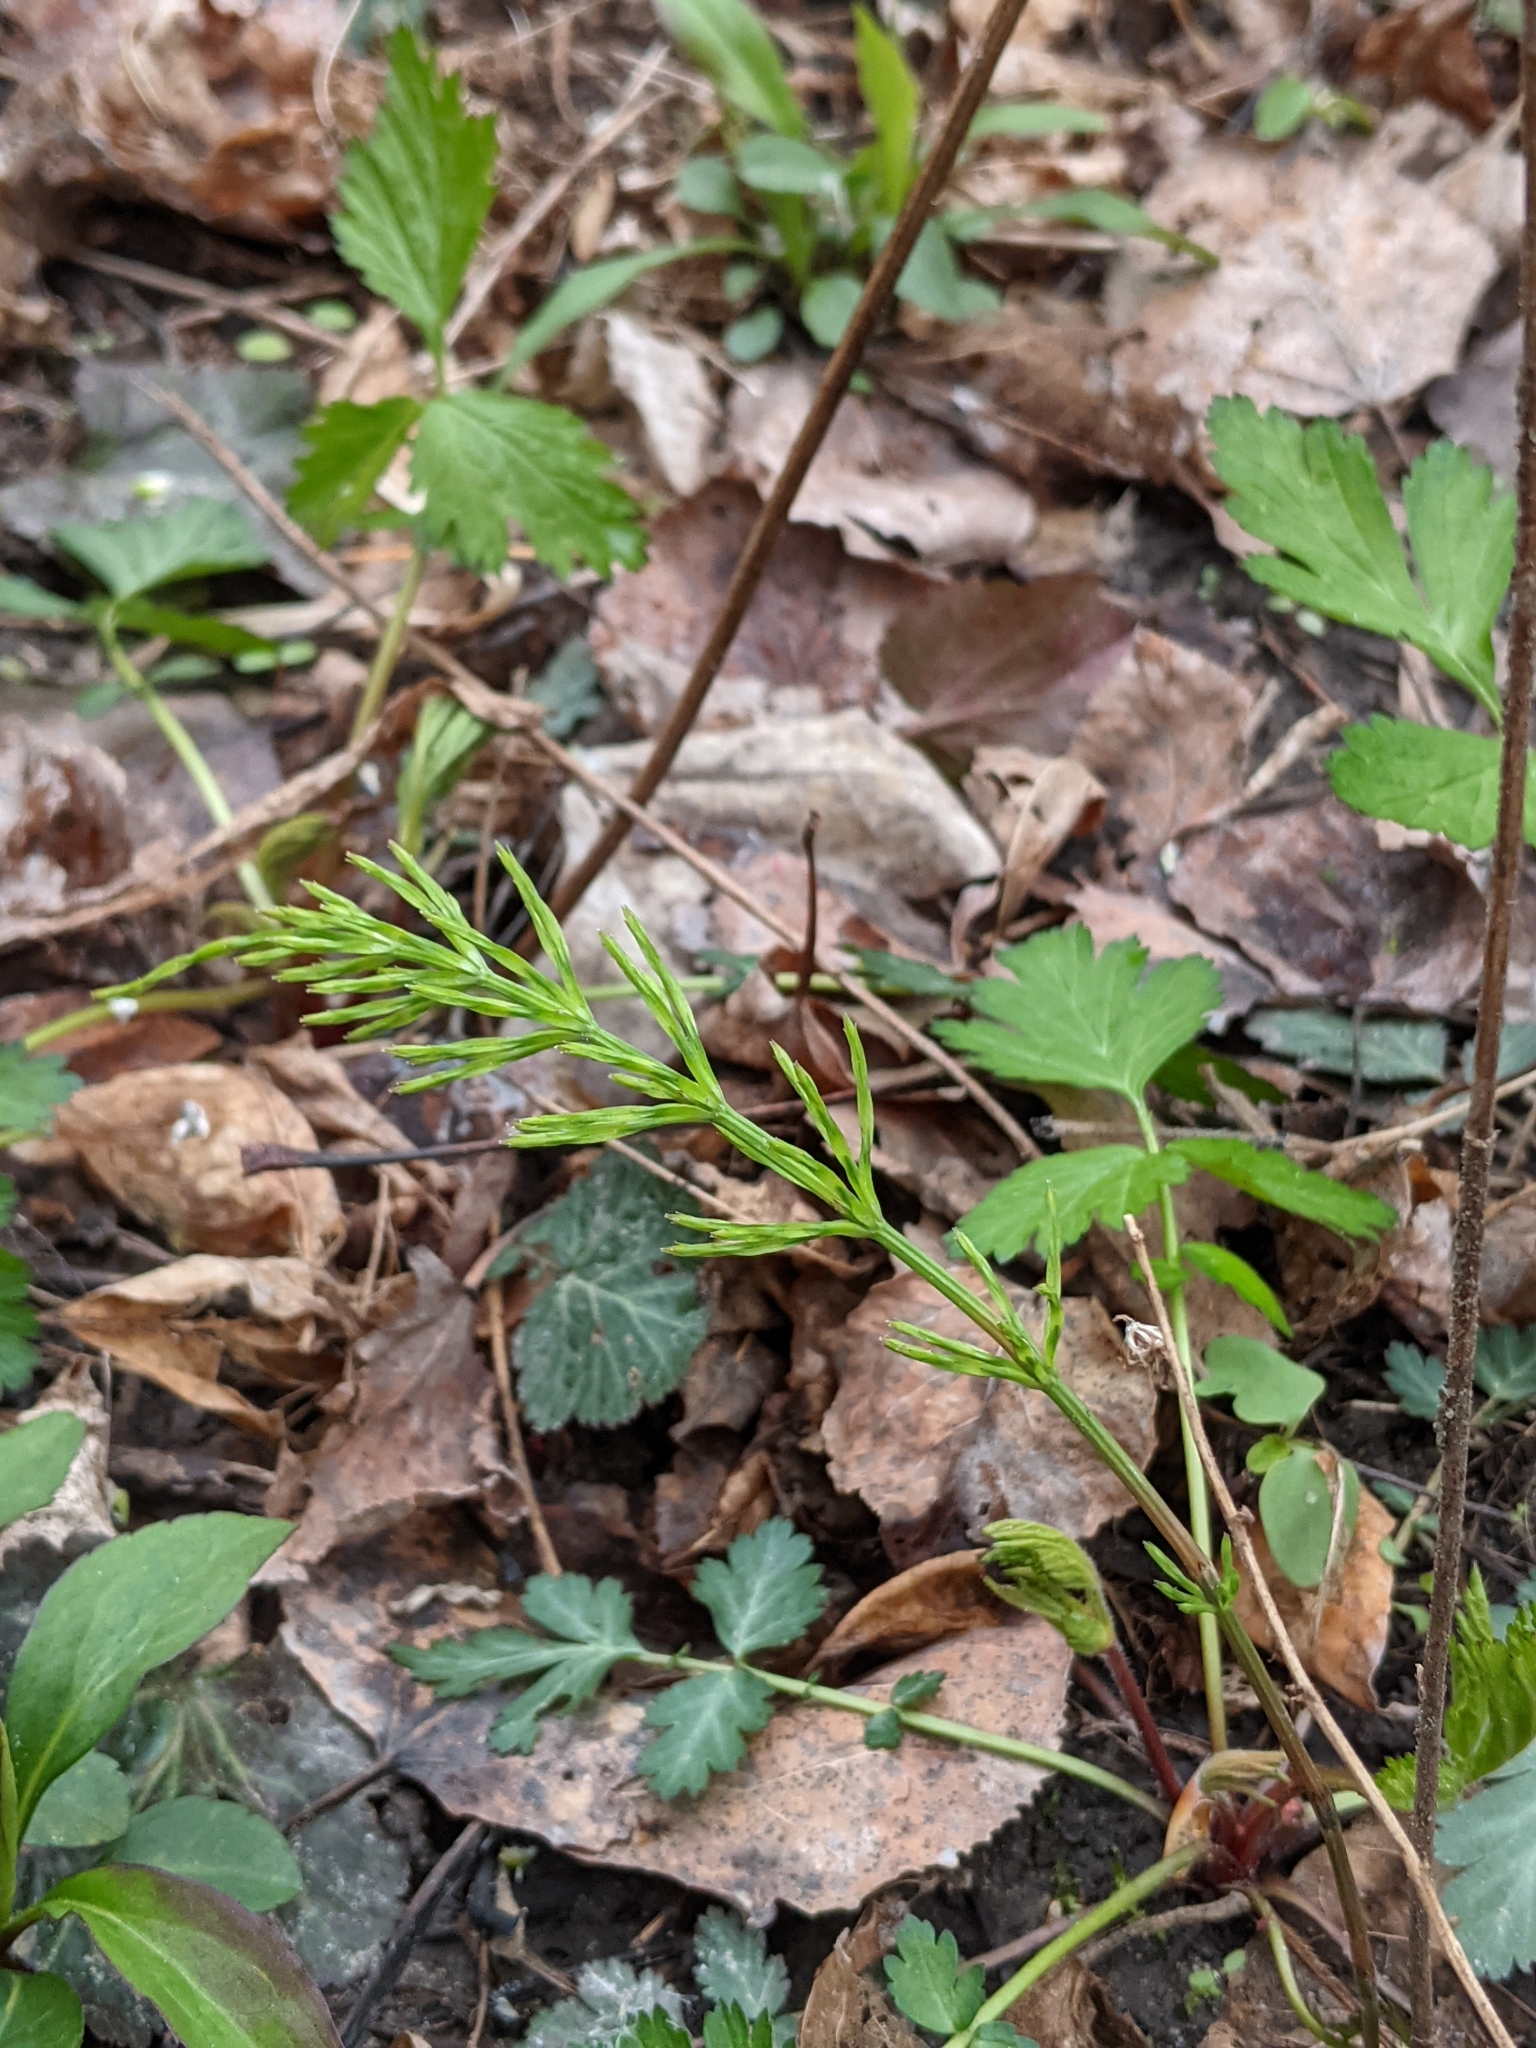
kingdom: Plantae
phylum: Tracheophyta
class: Polypodiopsida
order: Equisetales
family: Equisetaceae
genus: Equisetum
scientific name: Equisetum arvense
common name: Field horsetail
